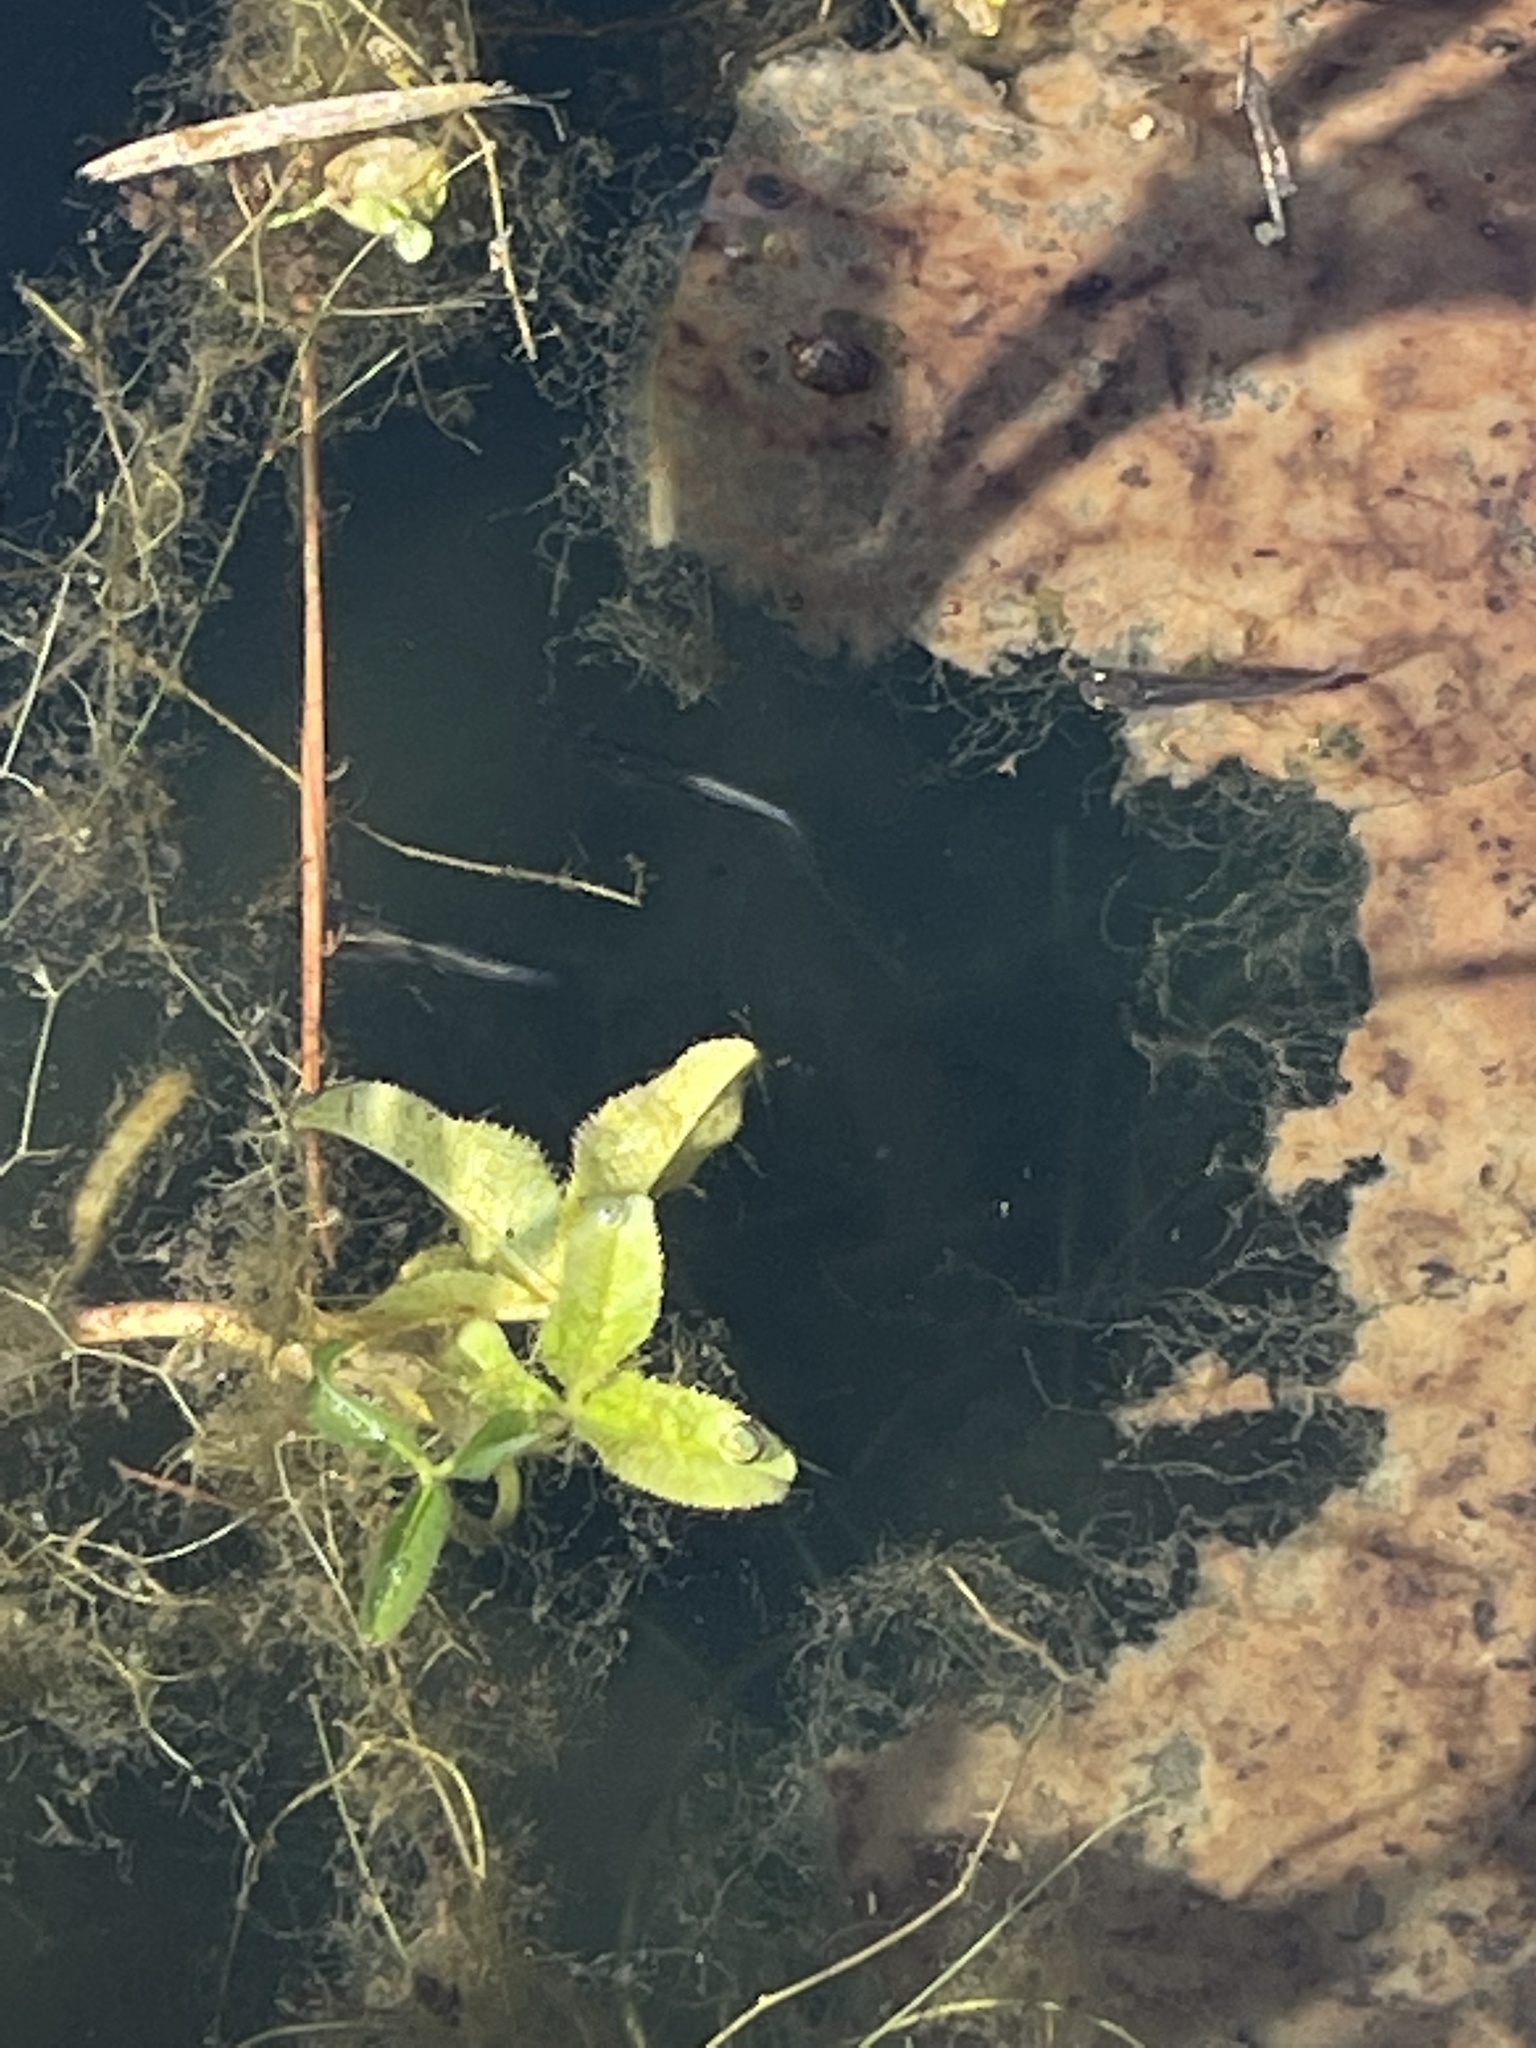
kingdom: Animalia
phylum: Chordata
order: Cyprinodontiformes
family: Poeciliidae
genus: Gambusia
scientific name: Gambusia holbrooki
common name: Eastern mosquitofish
